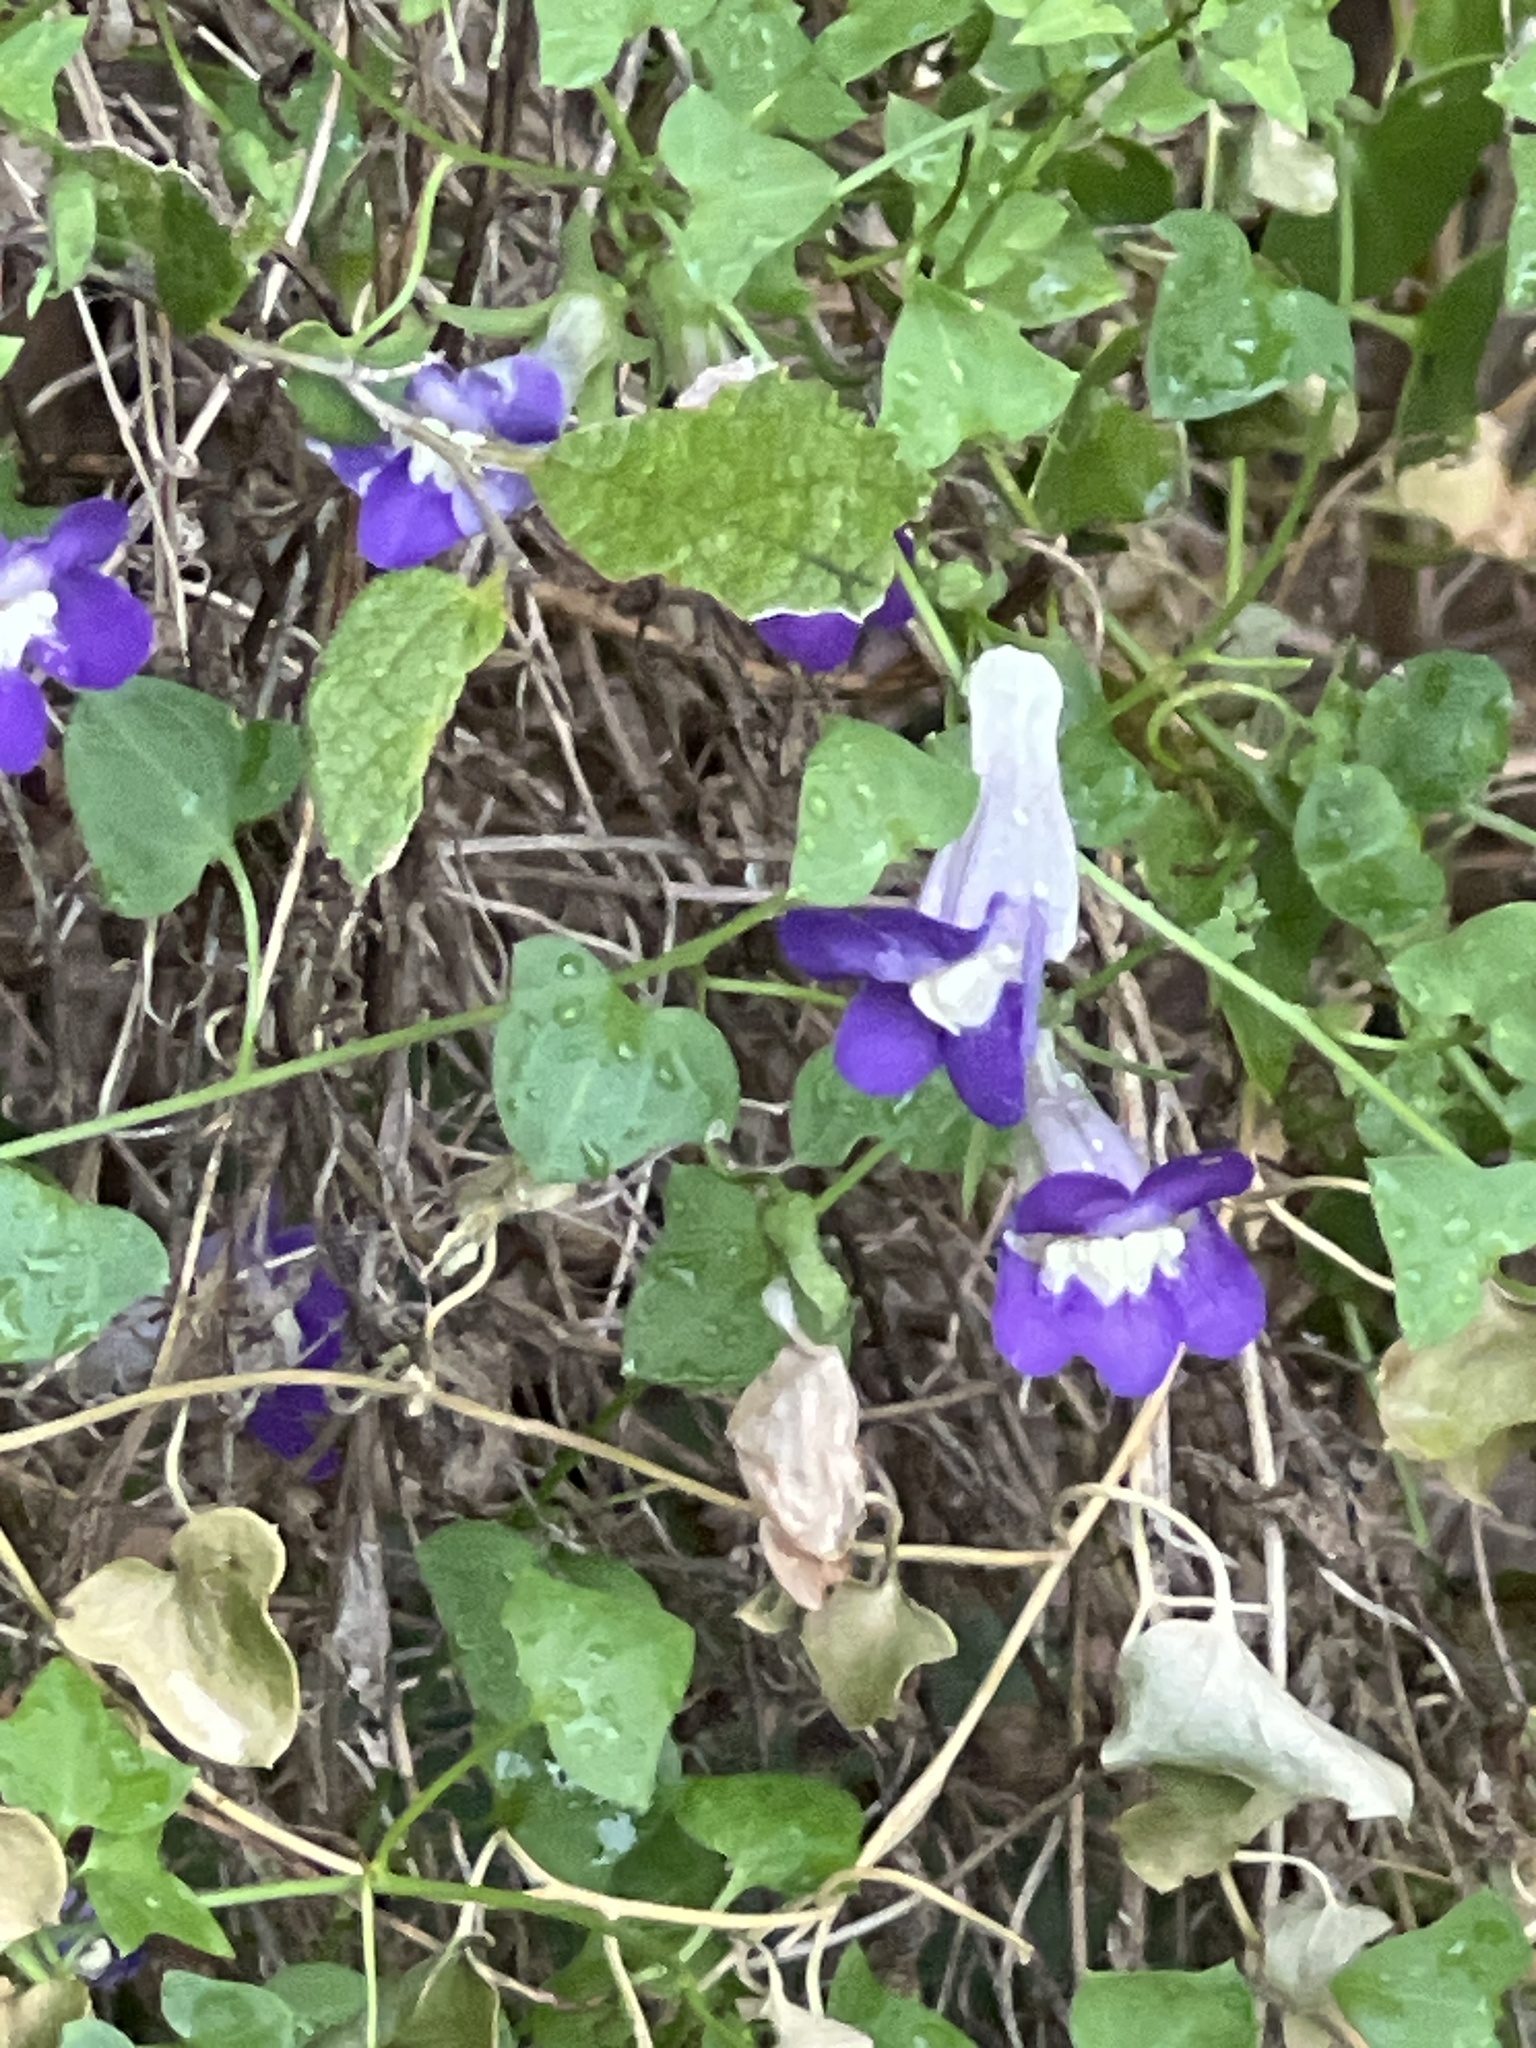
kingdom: Plantae
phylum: Tracheophyta
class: Magnoliopsida
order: Lamiales
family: Plantaginaceae
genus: Maurandella
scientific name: Maurandella antirrhiniflora
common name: Violet twining-snapdragon
